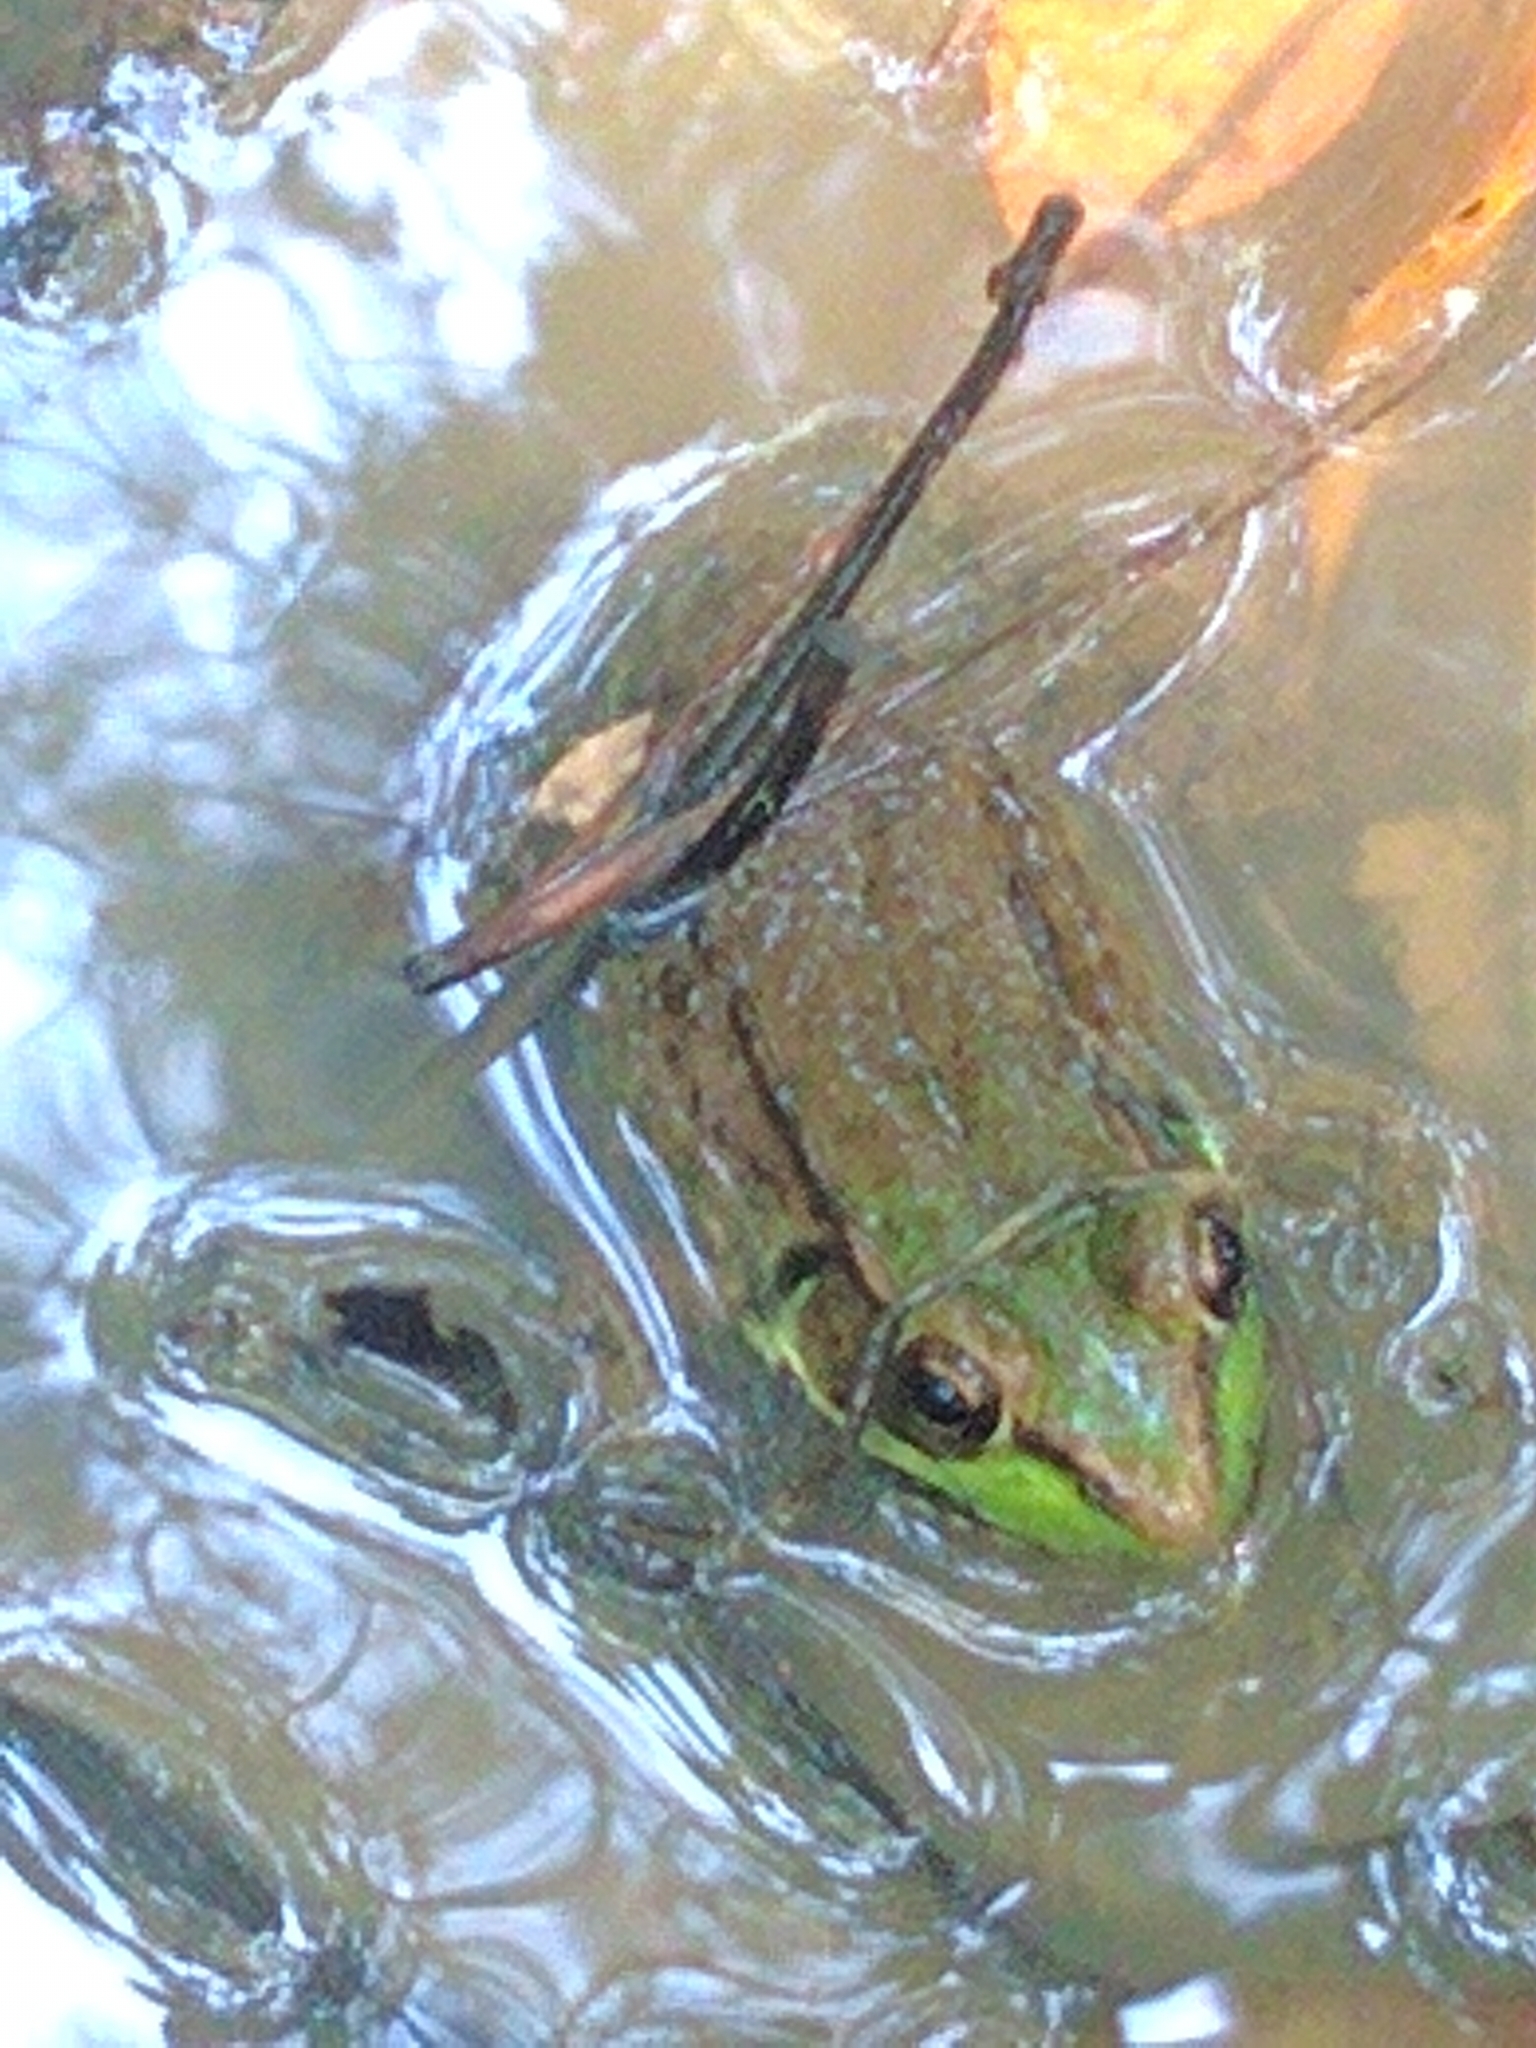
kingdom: Animalia
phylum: Chordata
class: Amphibia
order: Anura
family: Ranidae
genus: Lithobates
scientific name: Lithobates clamitans
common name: Green frog
